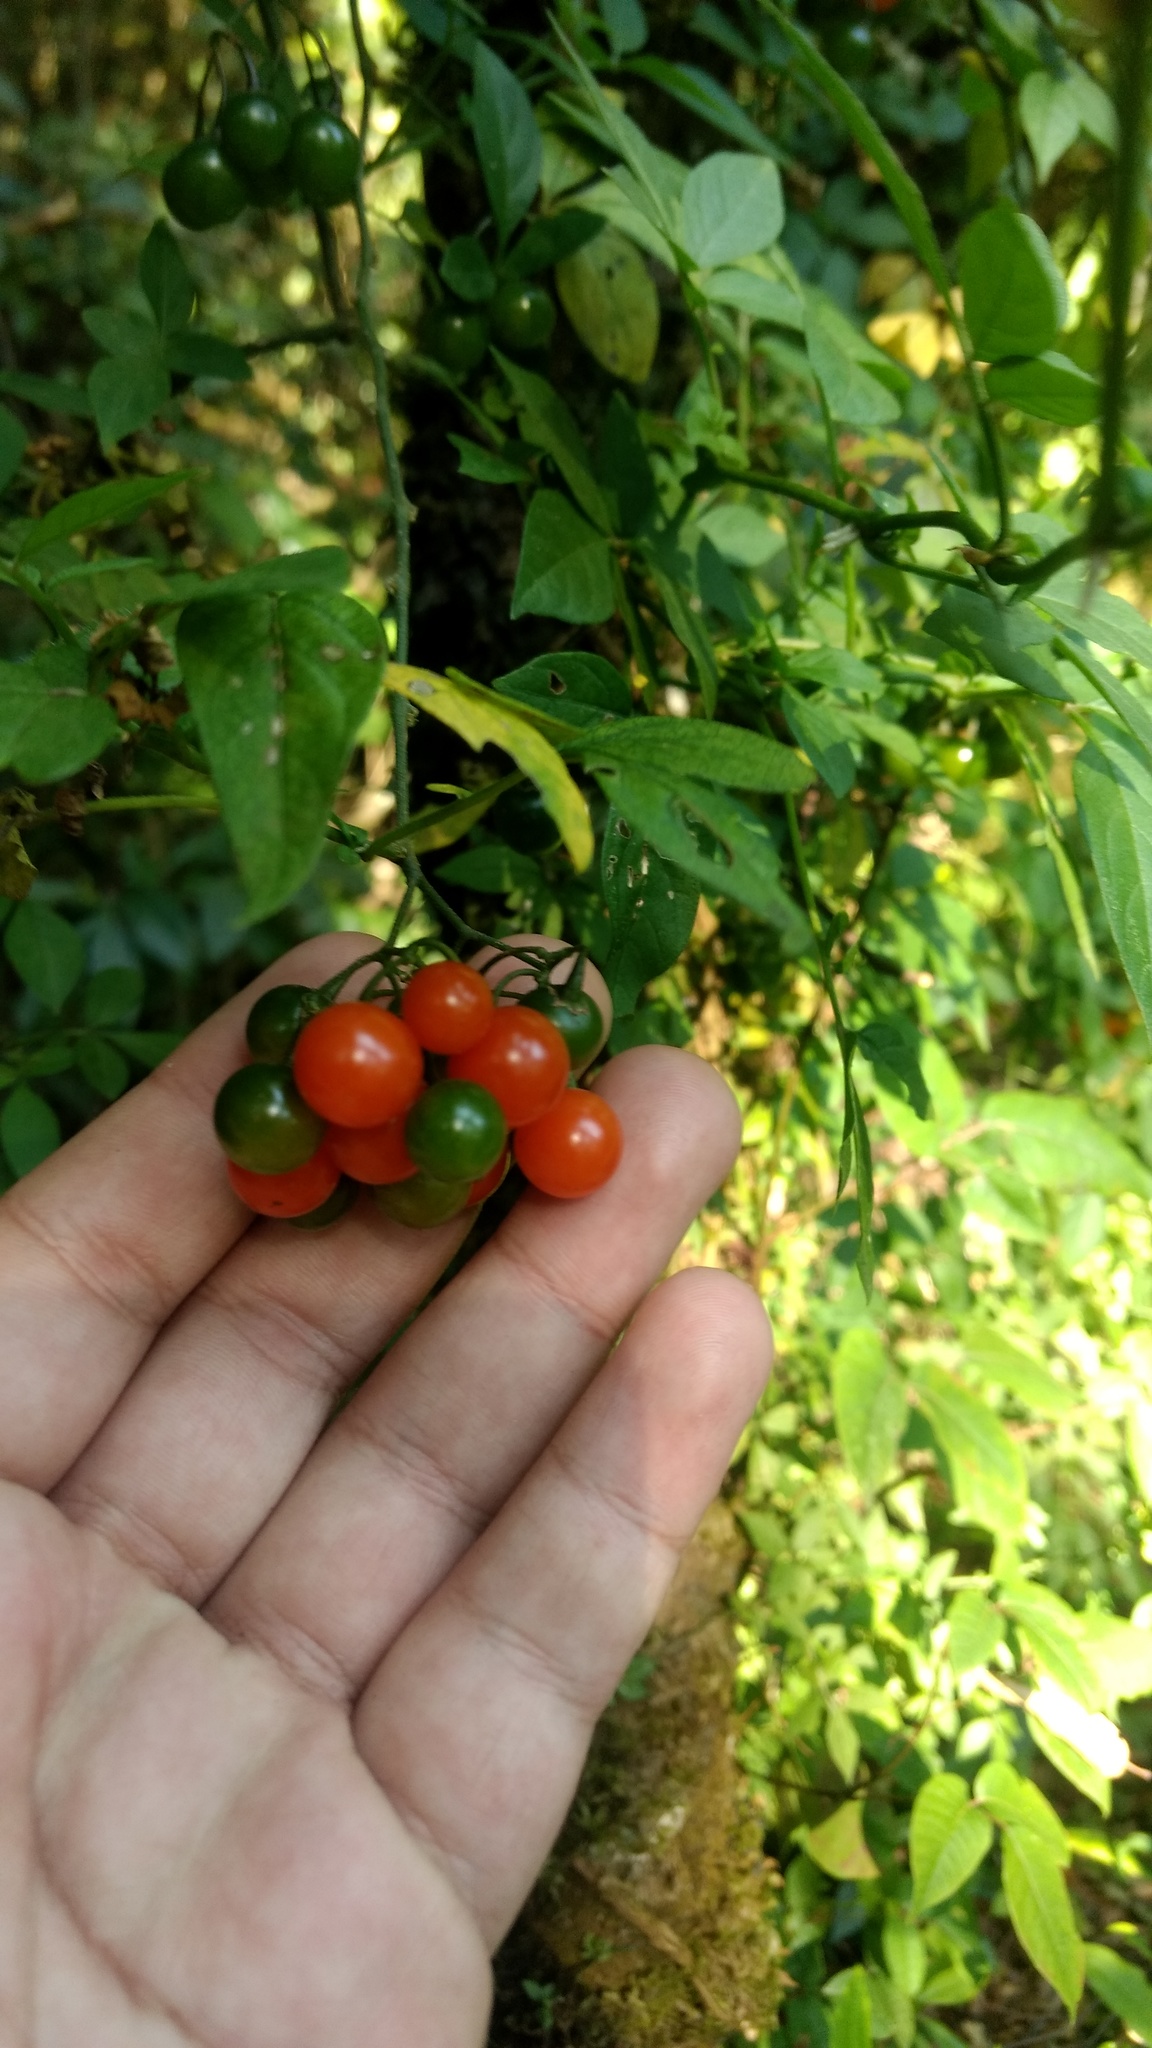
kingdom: Plantae
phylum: Tracheophyta
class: Magnoliopsida
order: Solanales
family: Solanaceae
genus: Solanum
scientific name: Solanum appendiculatum
